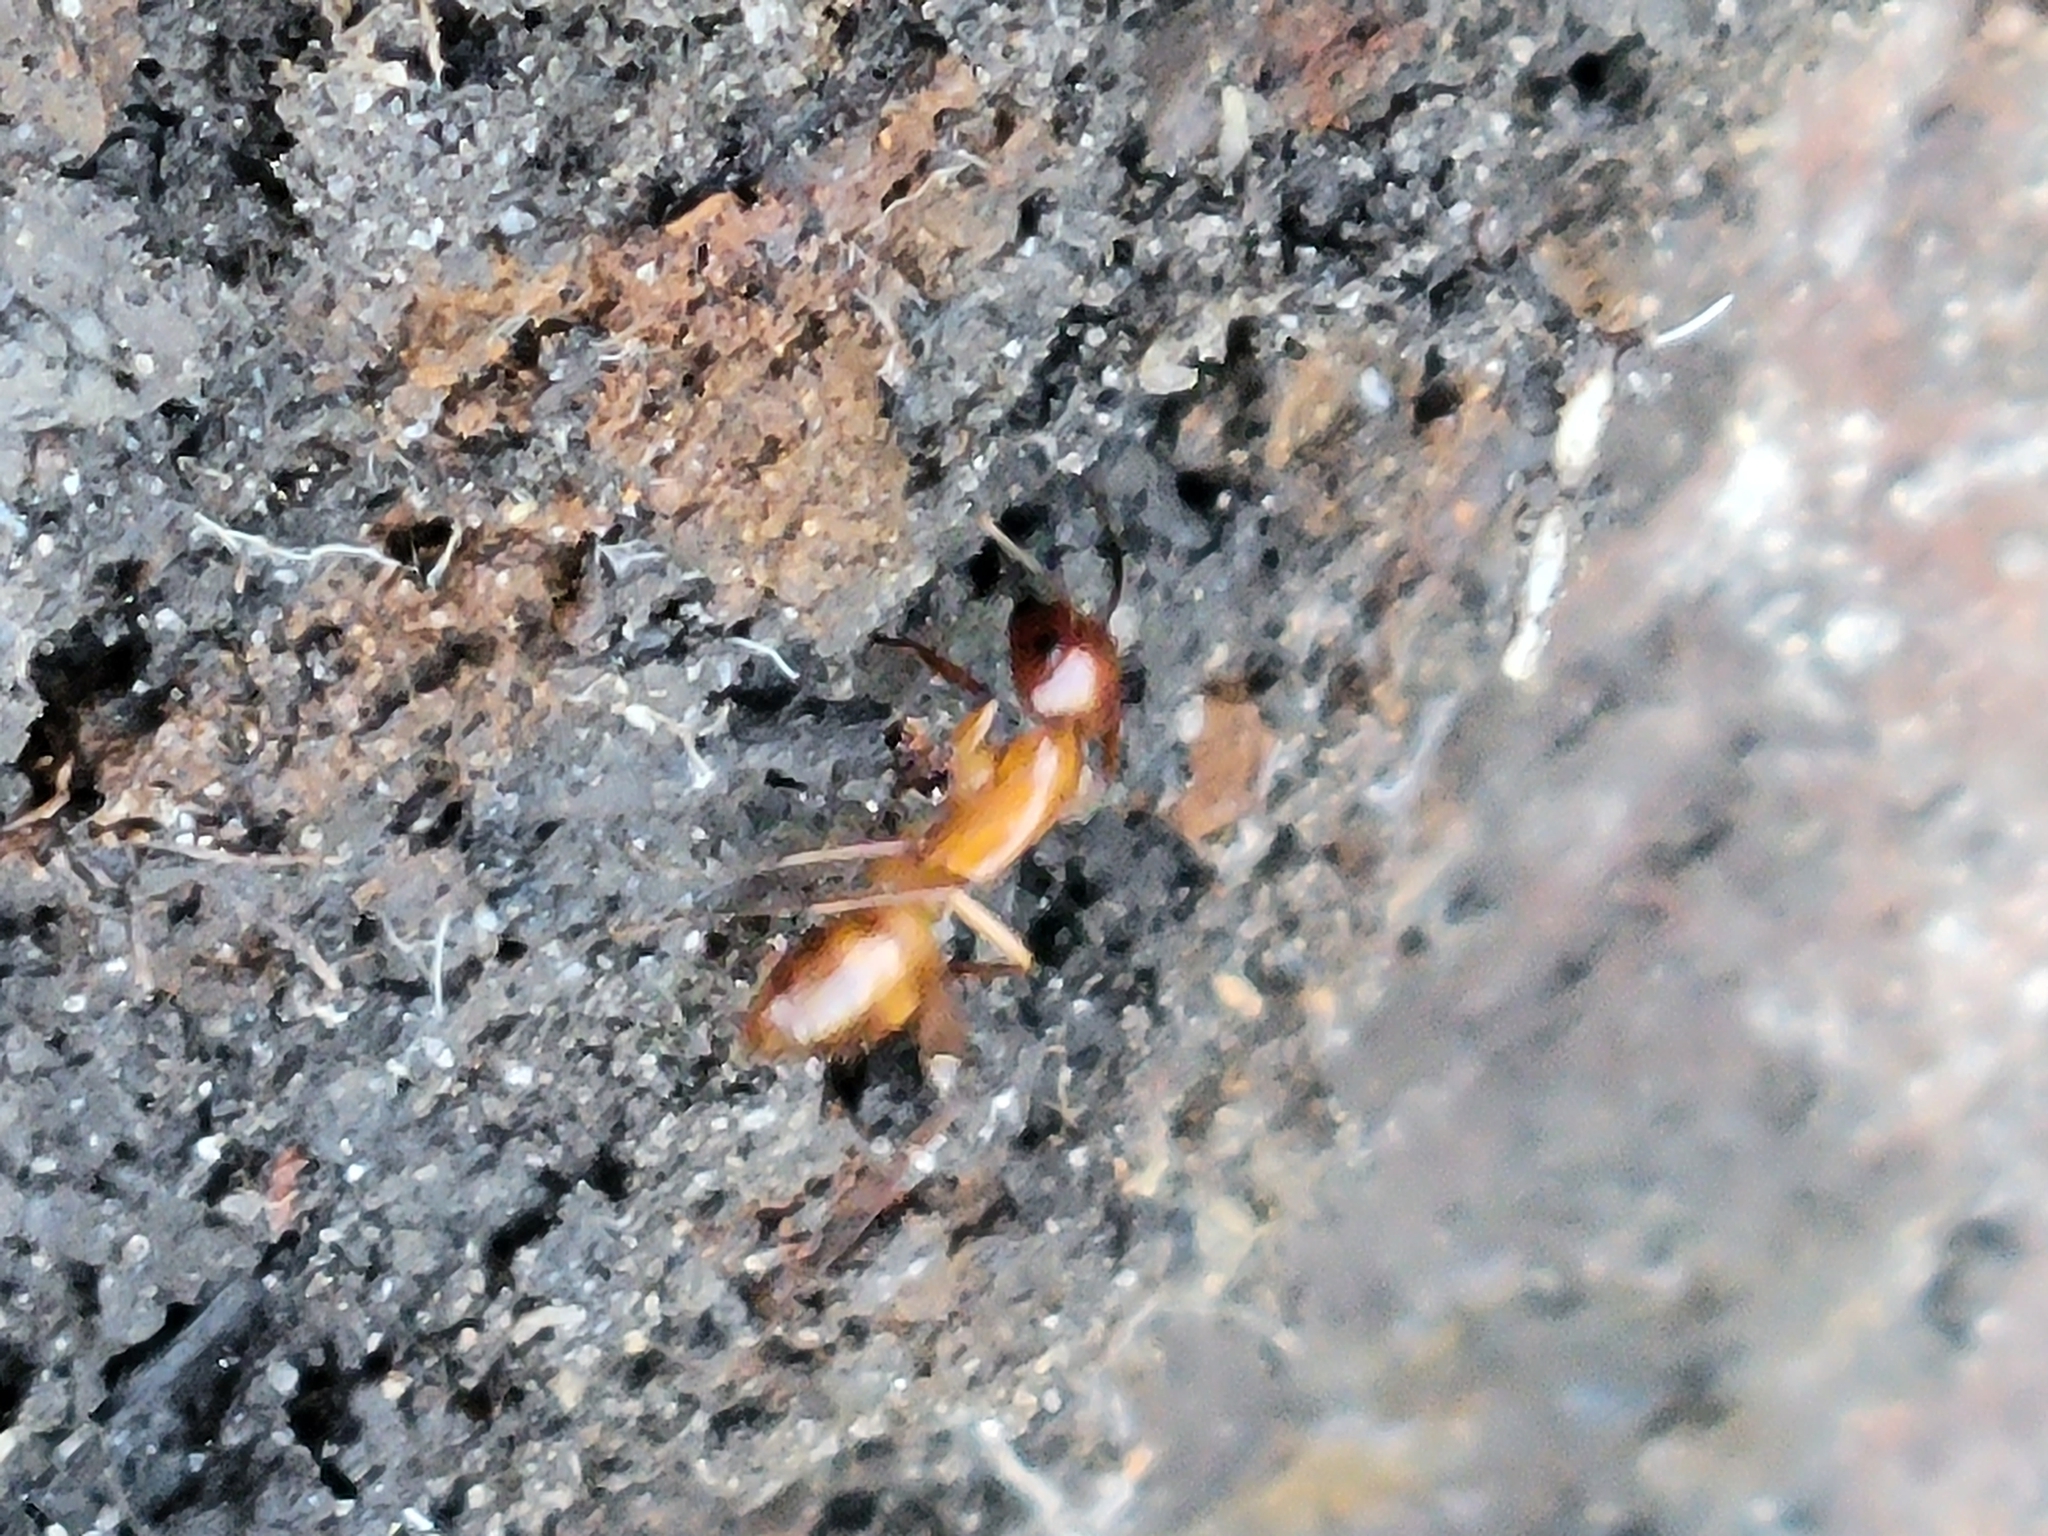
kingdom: Animalia
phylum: Arthropoda
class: Insecta
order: Hymenoptera
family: Formicidae
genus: Camponotus
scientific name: Camponotus castaneus
